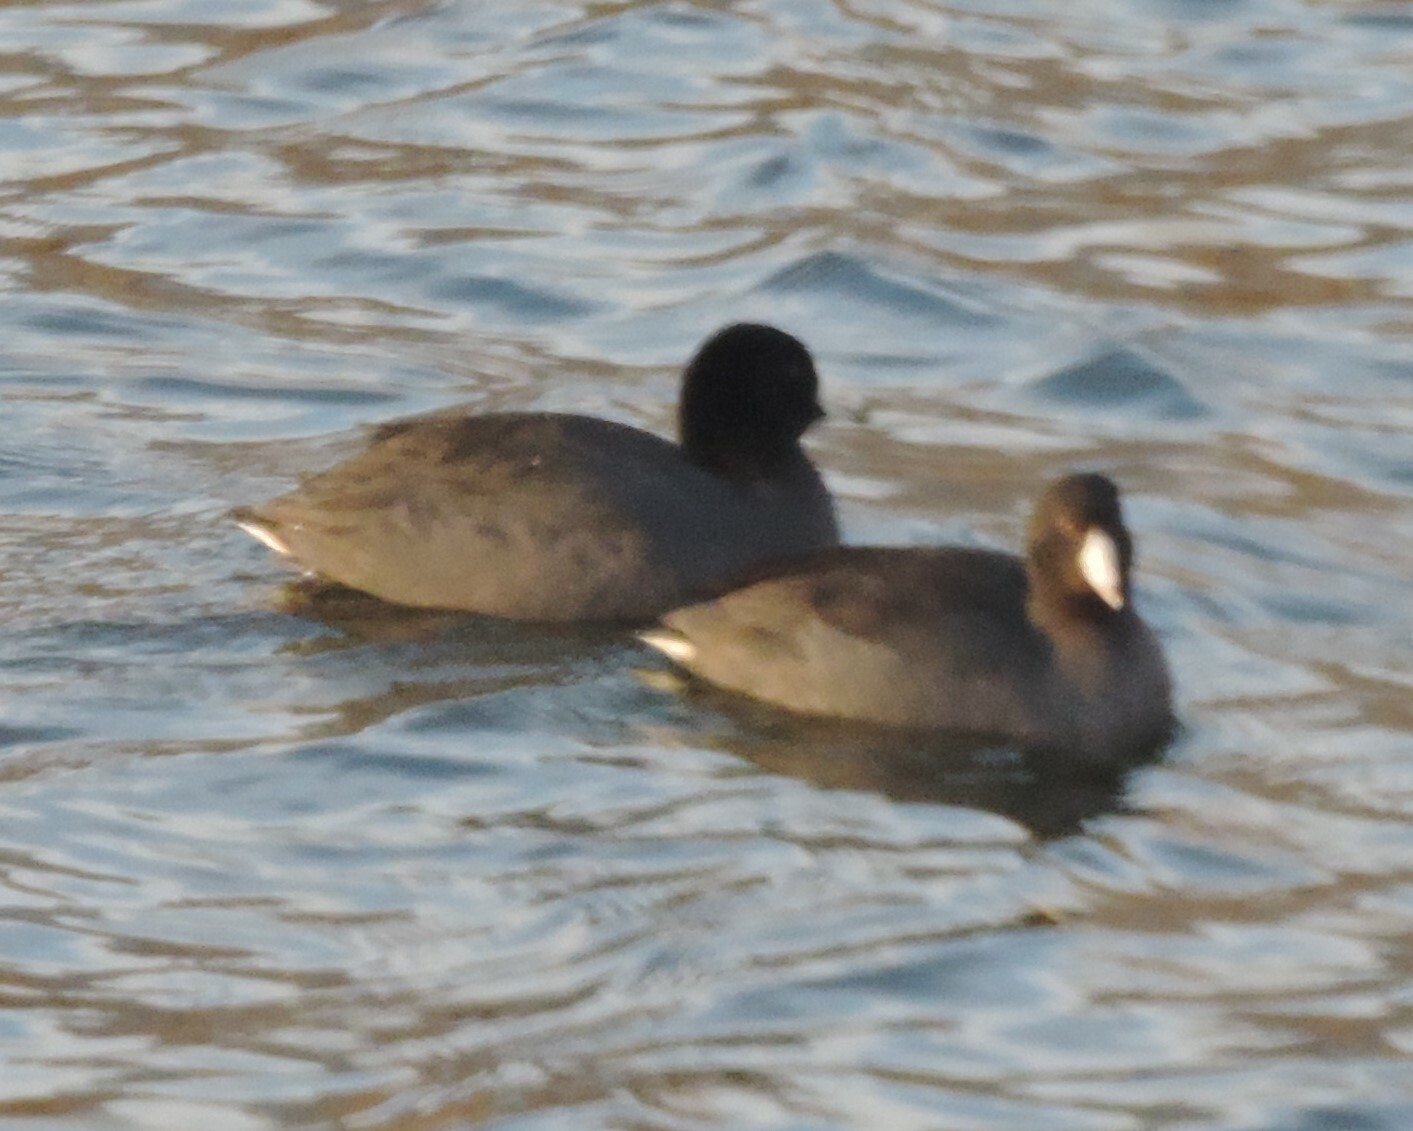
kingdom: Animalia
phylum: Chordata
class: Aves
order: Gruiformes
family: Rallidae
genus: Fulica
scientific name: Fulica americana
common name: American coot
